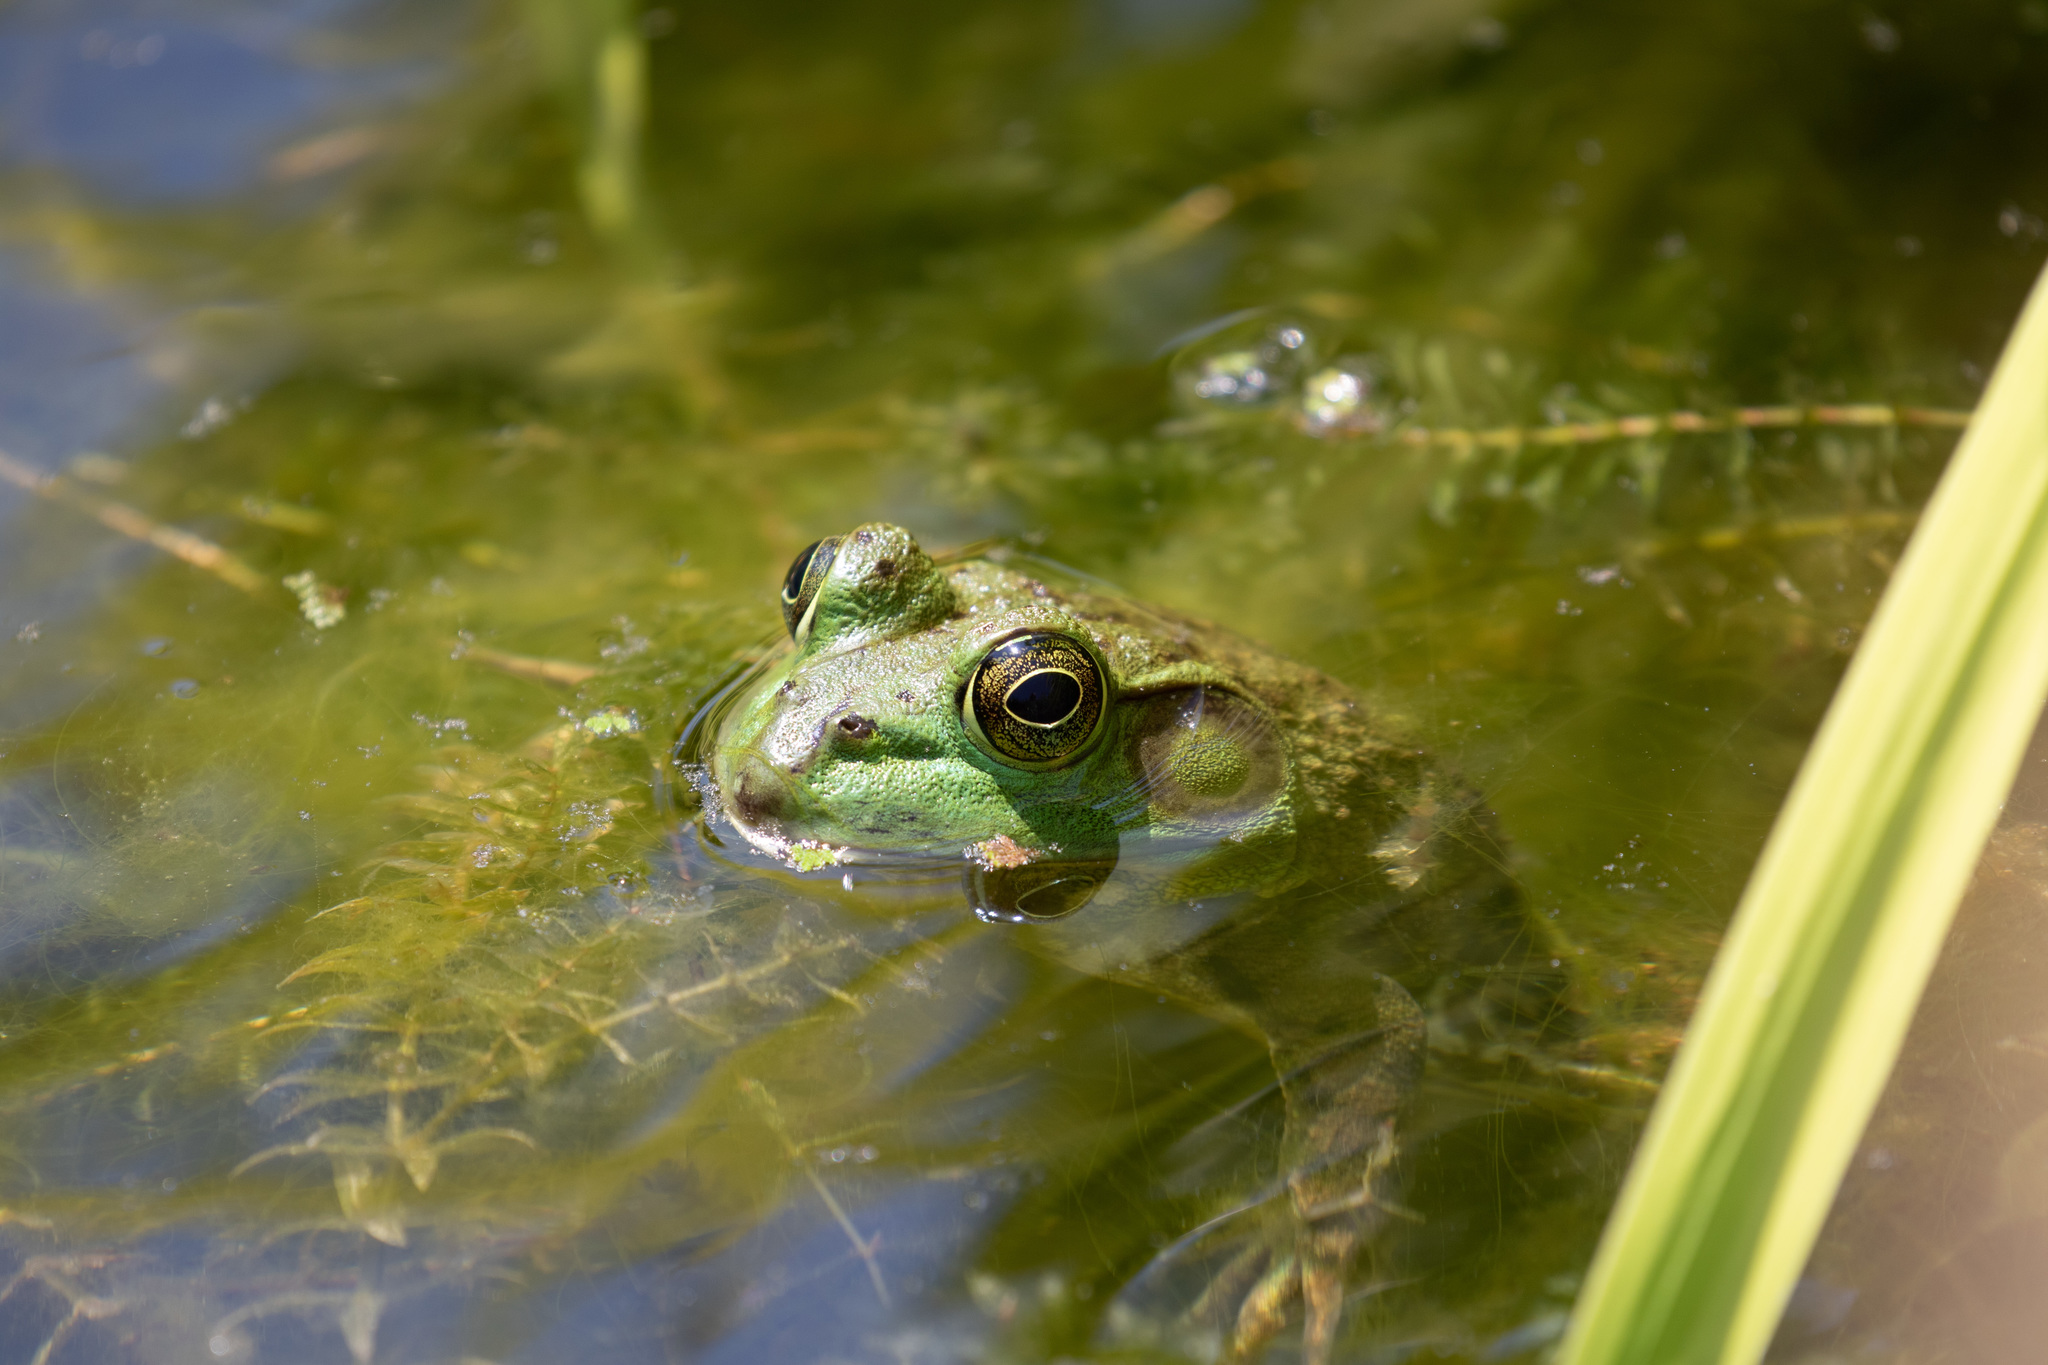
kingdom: Animalia
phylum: Chordata
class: Amphibia
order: Anura
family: Ranidae
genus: Lithobates
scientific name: Lithobates catesbeianus
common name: American bullfrog
